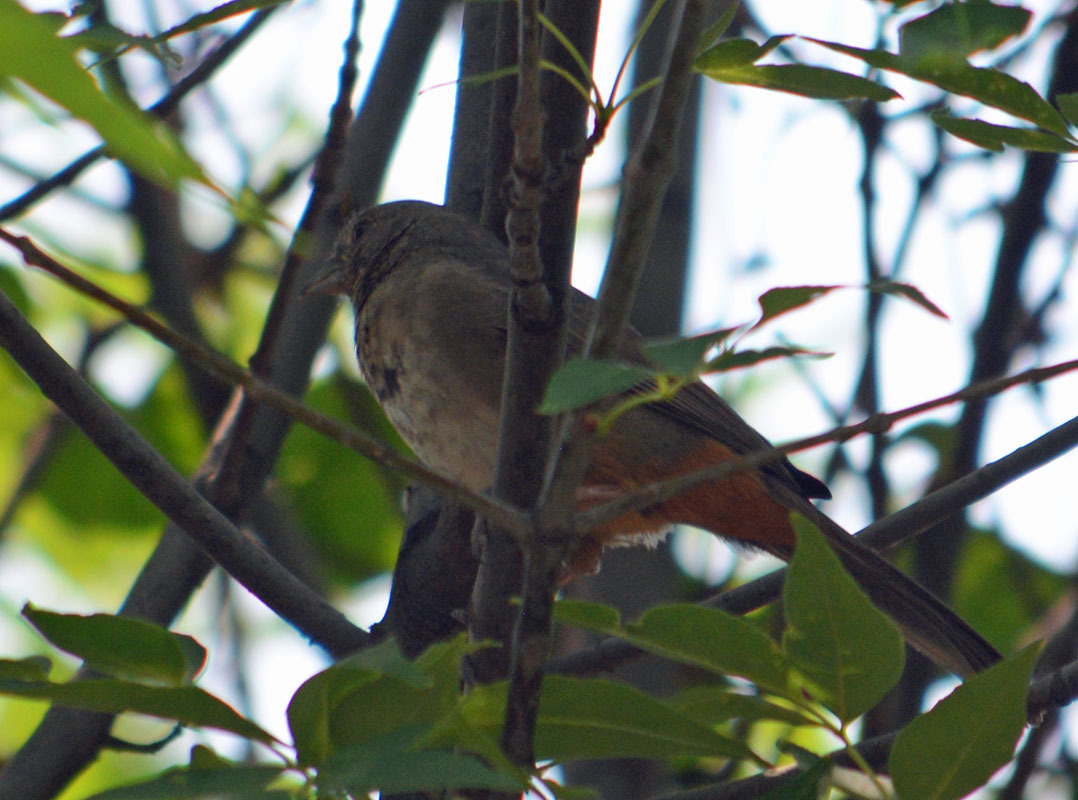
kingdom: Animalia
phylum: Chordata
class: Aves
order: Passeriformes
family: Passerellidae
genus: Melozone
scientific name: Melozone fusca
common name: Canyon towhee
